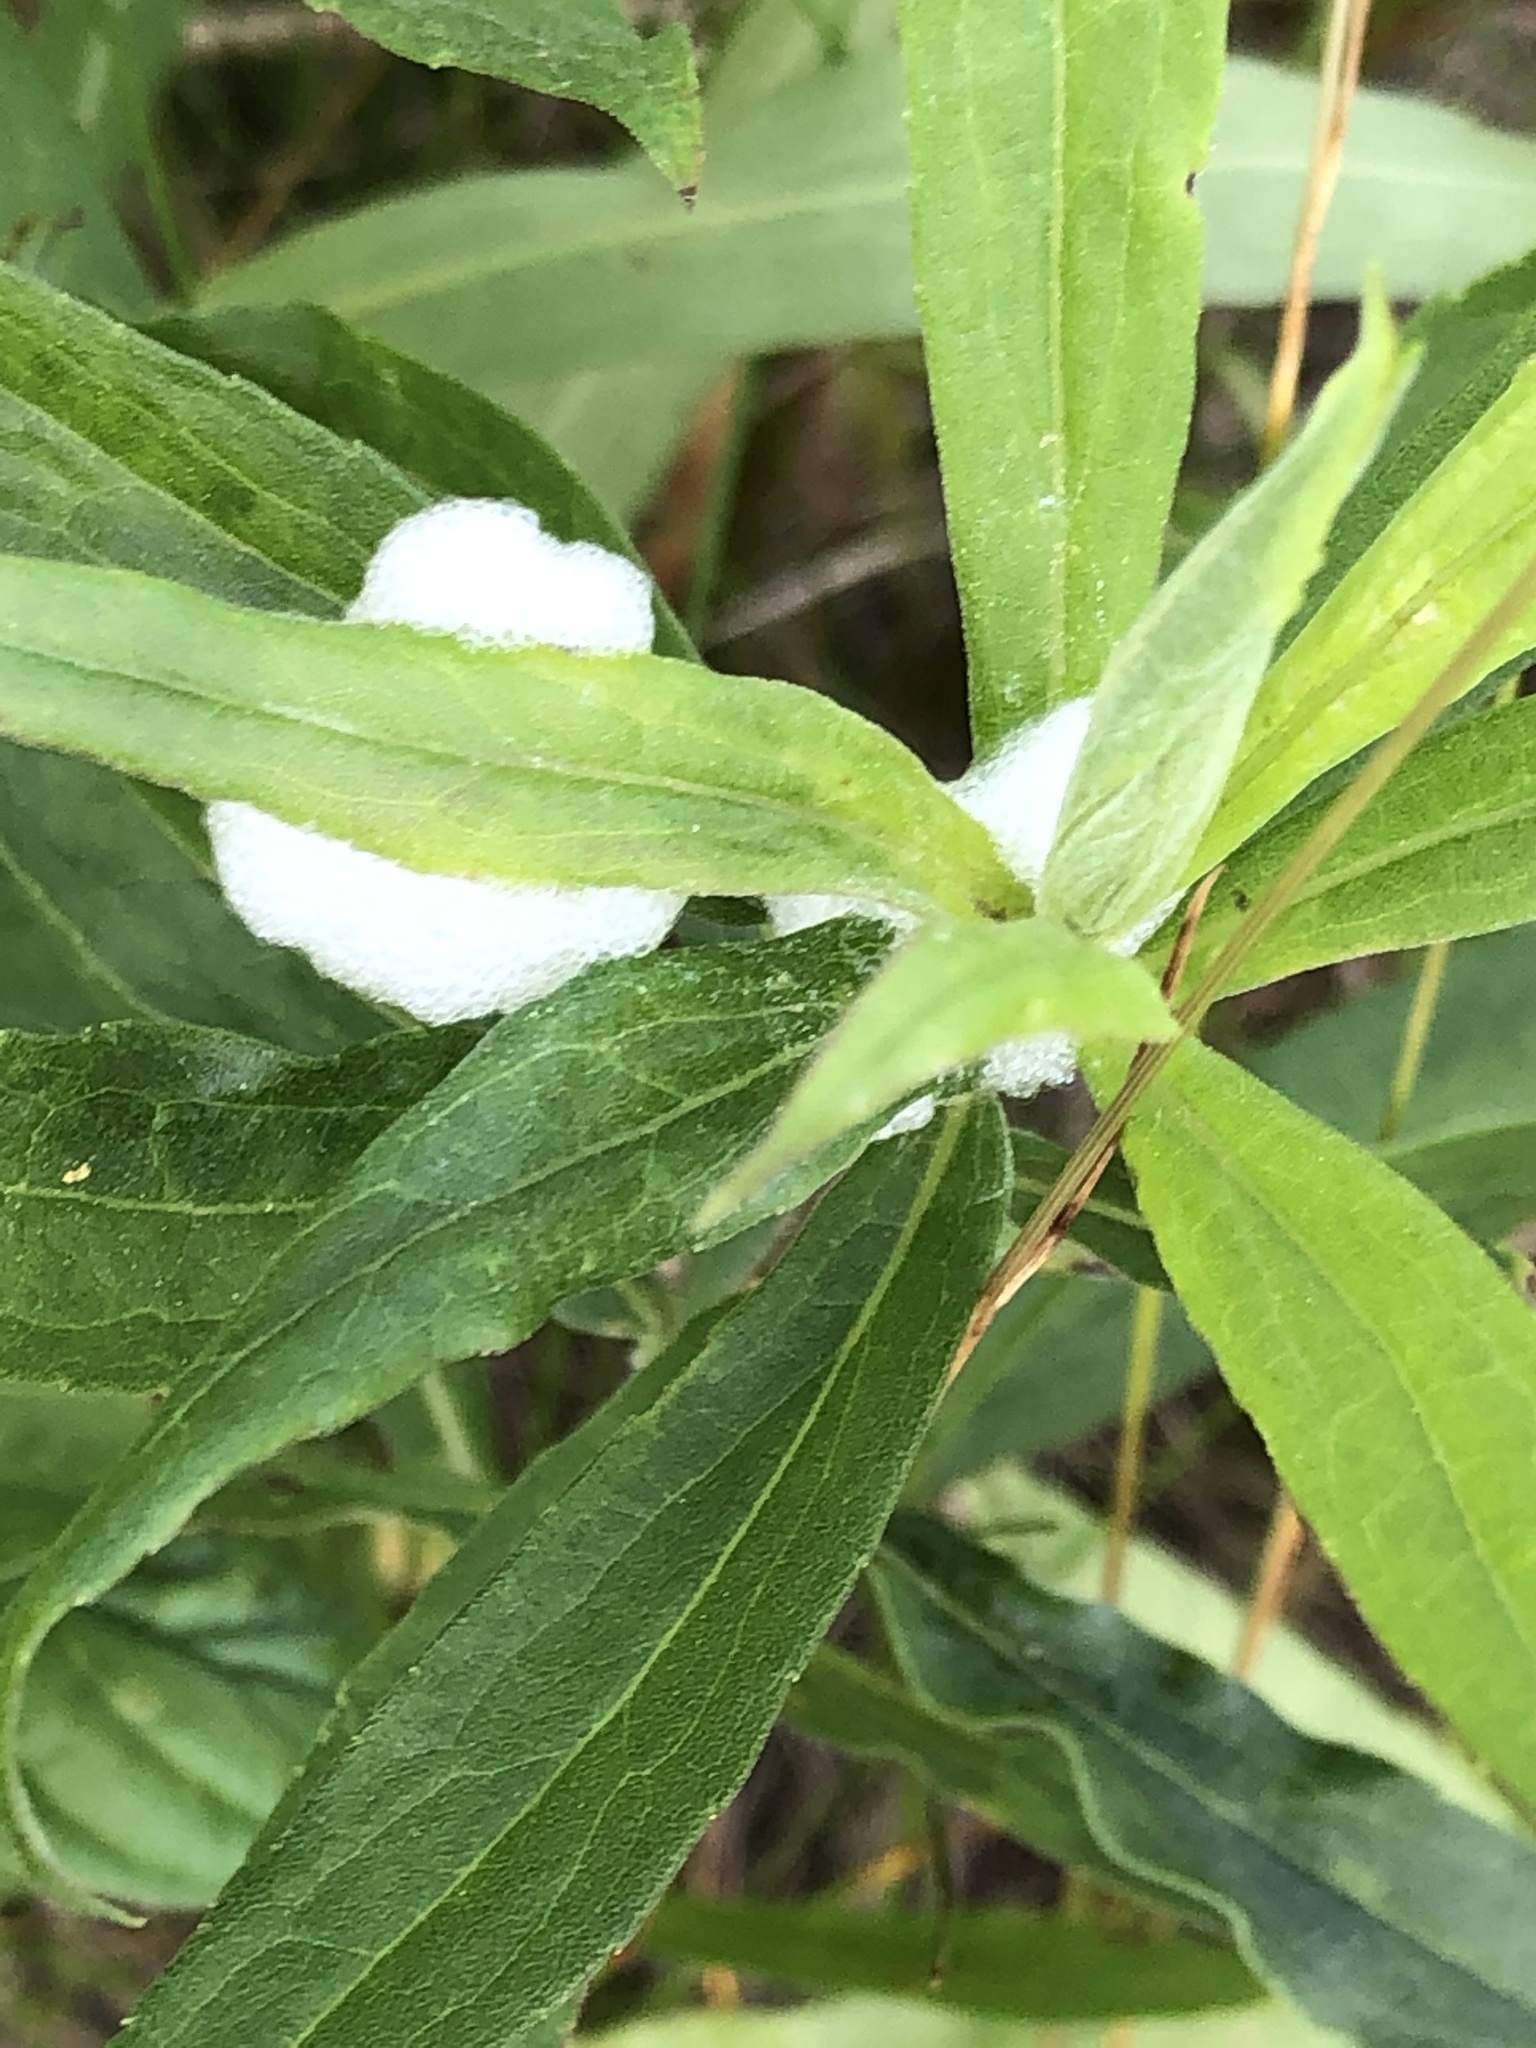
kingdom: Animalia
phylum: Arthropoda
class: Insecta
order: Hemiptera
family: Aphrophoridae
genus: Philaenus
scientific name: Philaenus spumarius
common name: Meadow spittlebug
